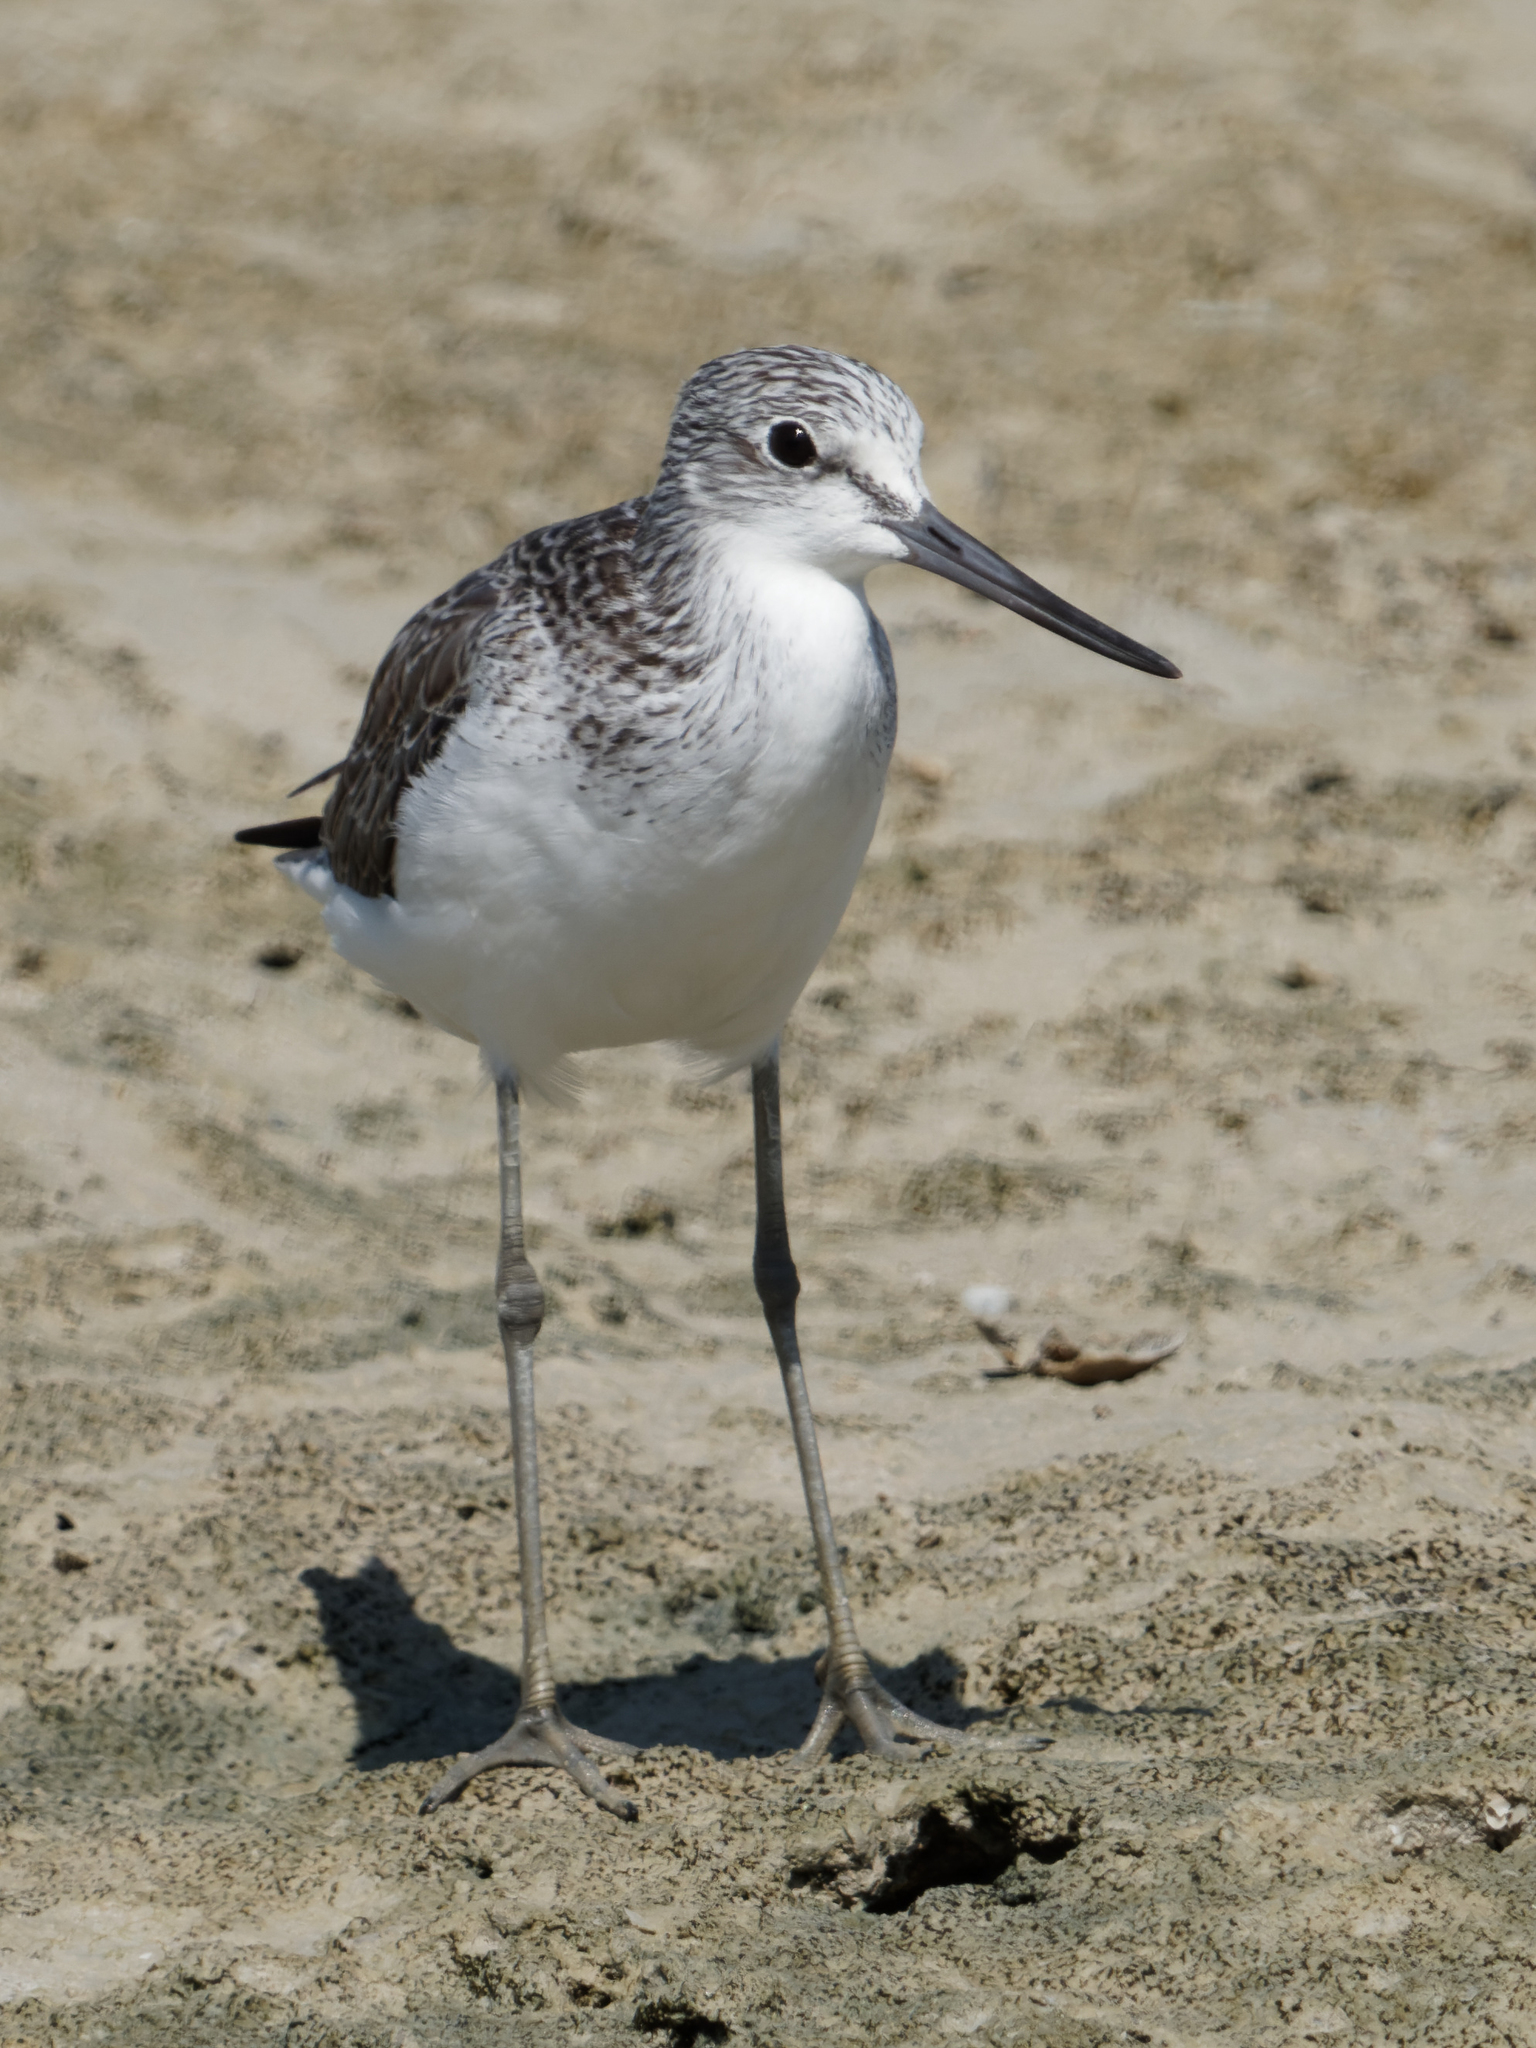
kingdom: Animalia
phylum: Chordata
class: Aves
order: Charadriiformes
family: Scolopacidae
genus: Tringa
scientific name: Tringa nebularia
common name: Common greenshank
